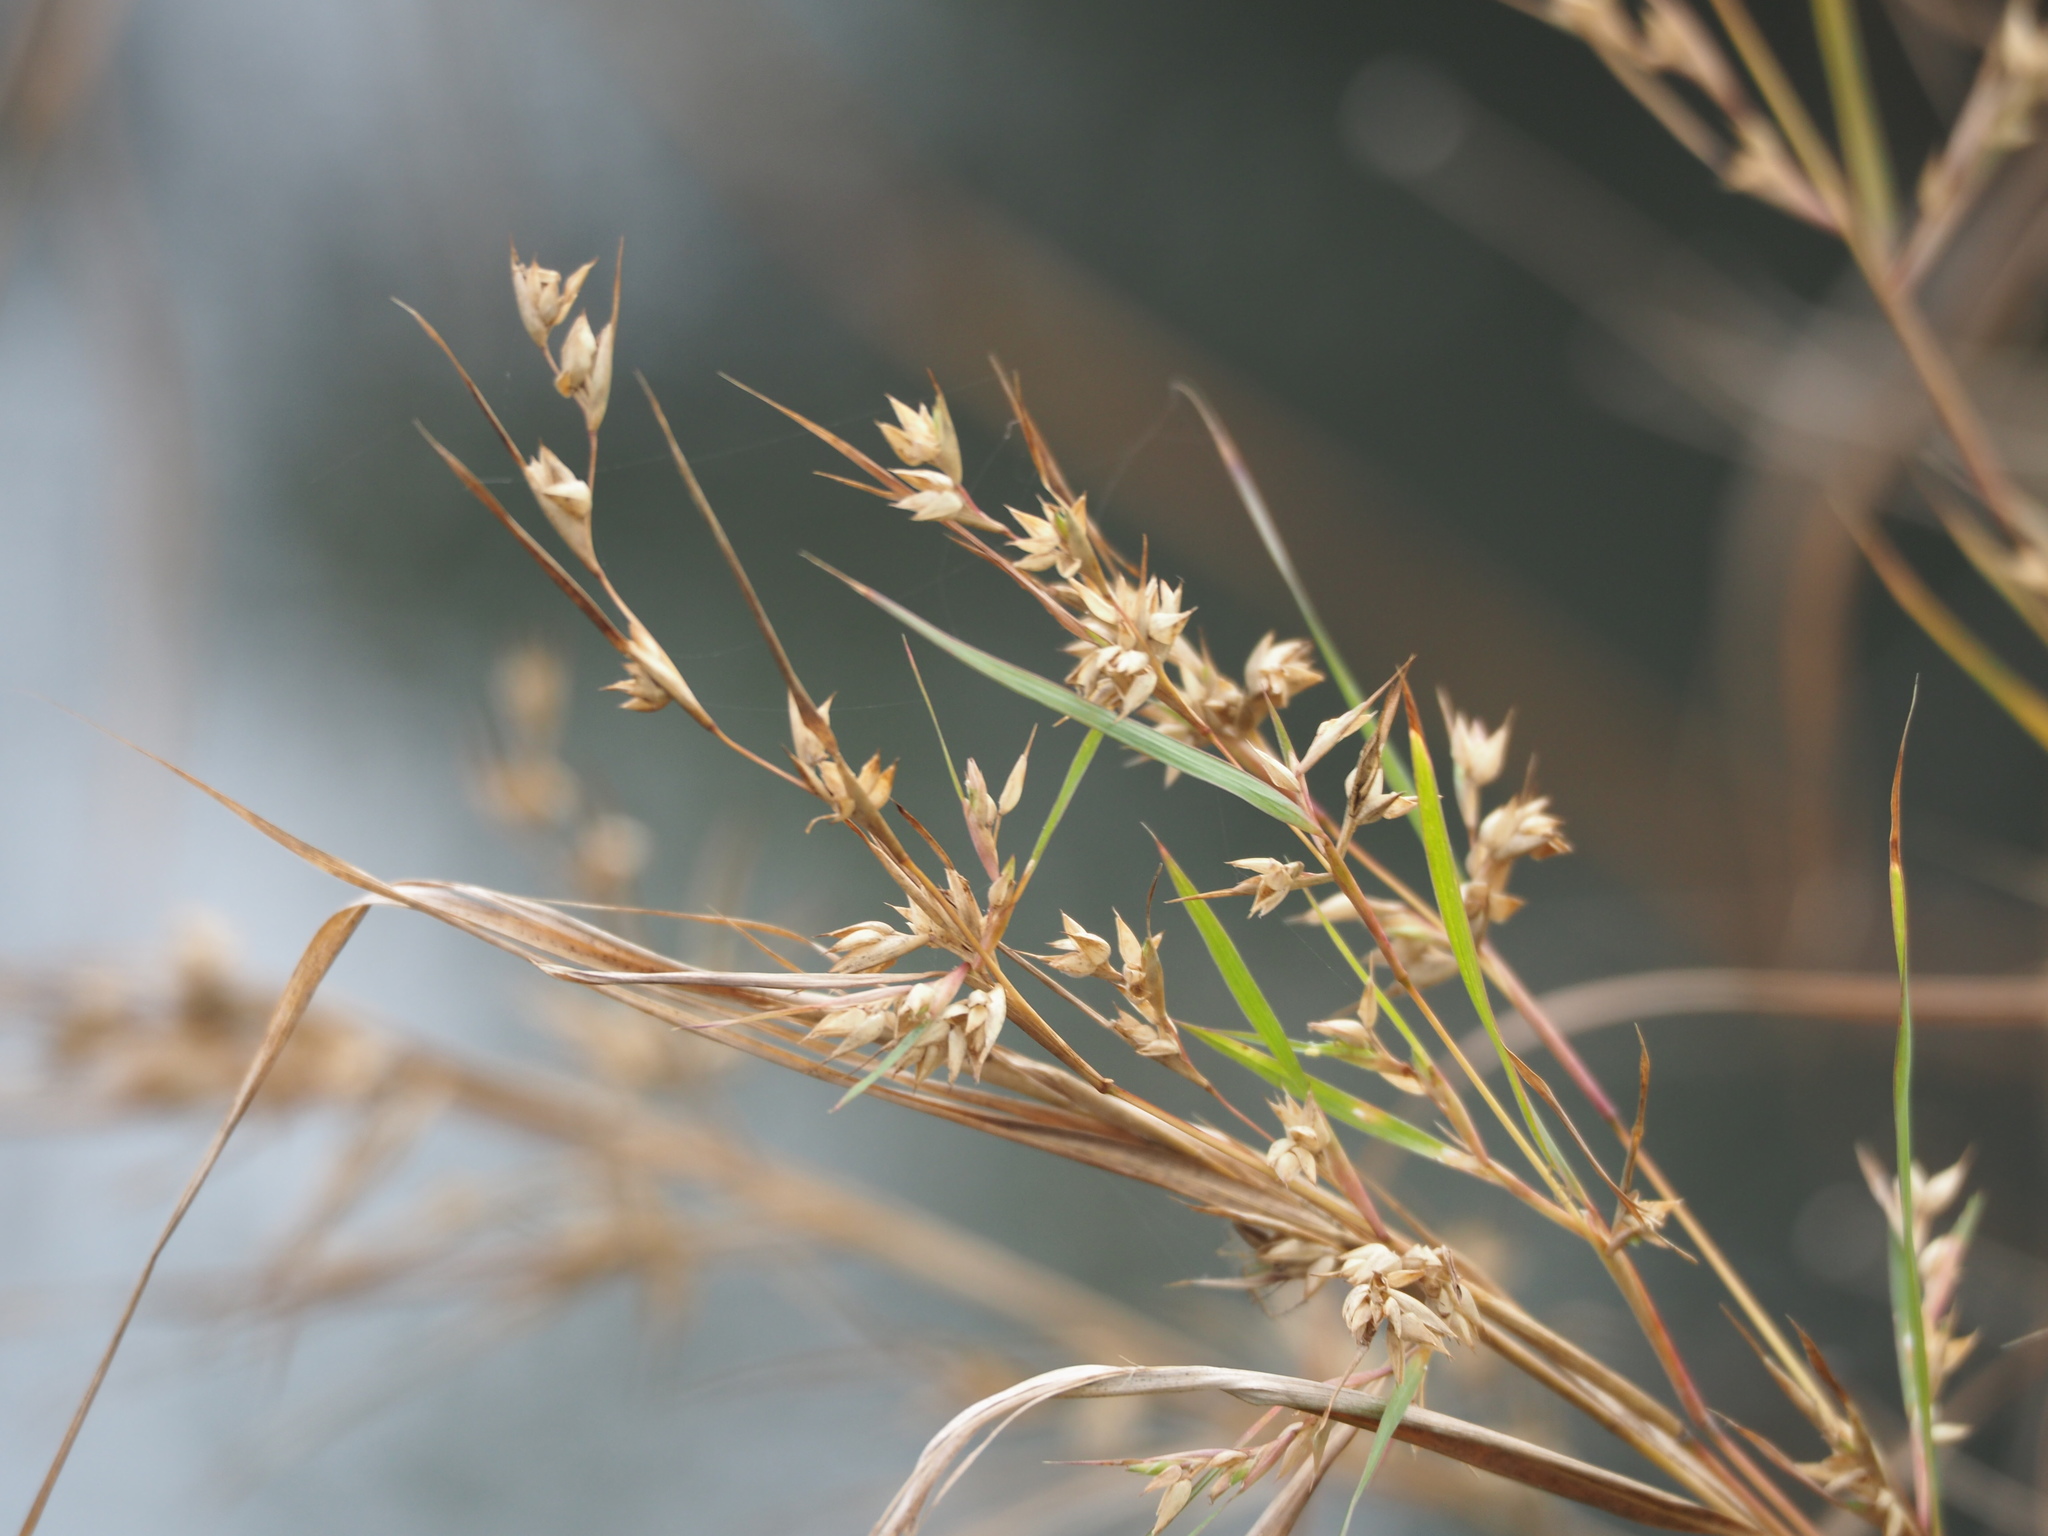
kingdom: Plantae
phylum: Tracheophyta
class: Liliopsida
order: Poales
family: Poaceae
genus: Apluda
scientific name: Apluda mutica
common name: Mauritian grass
